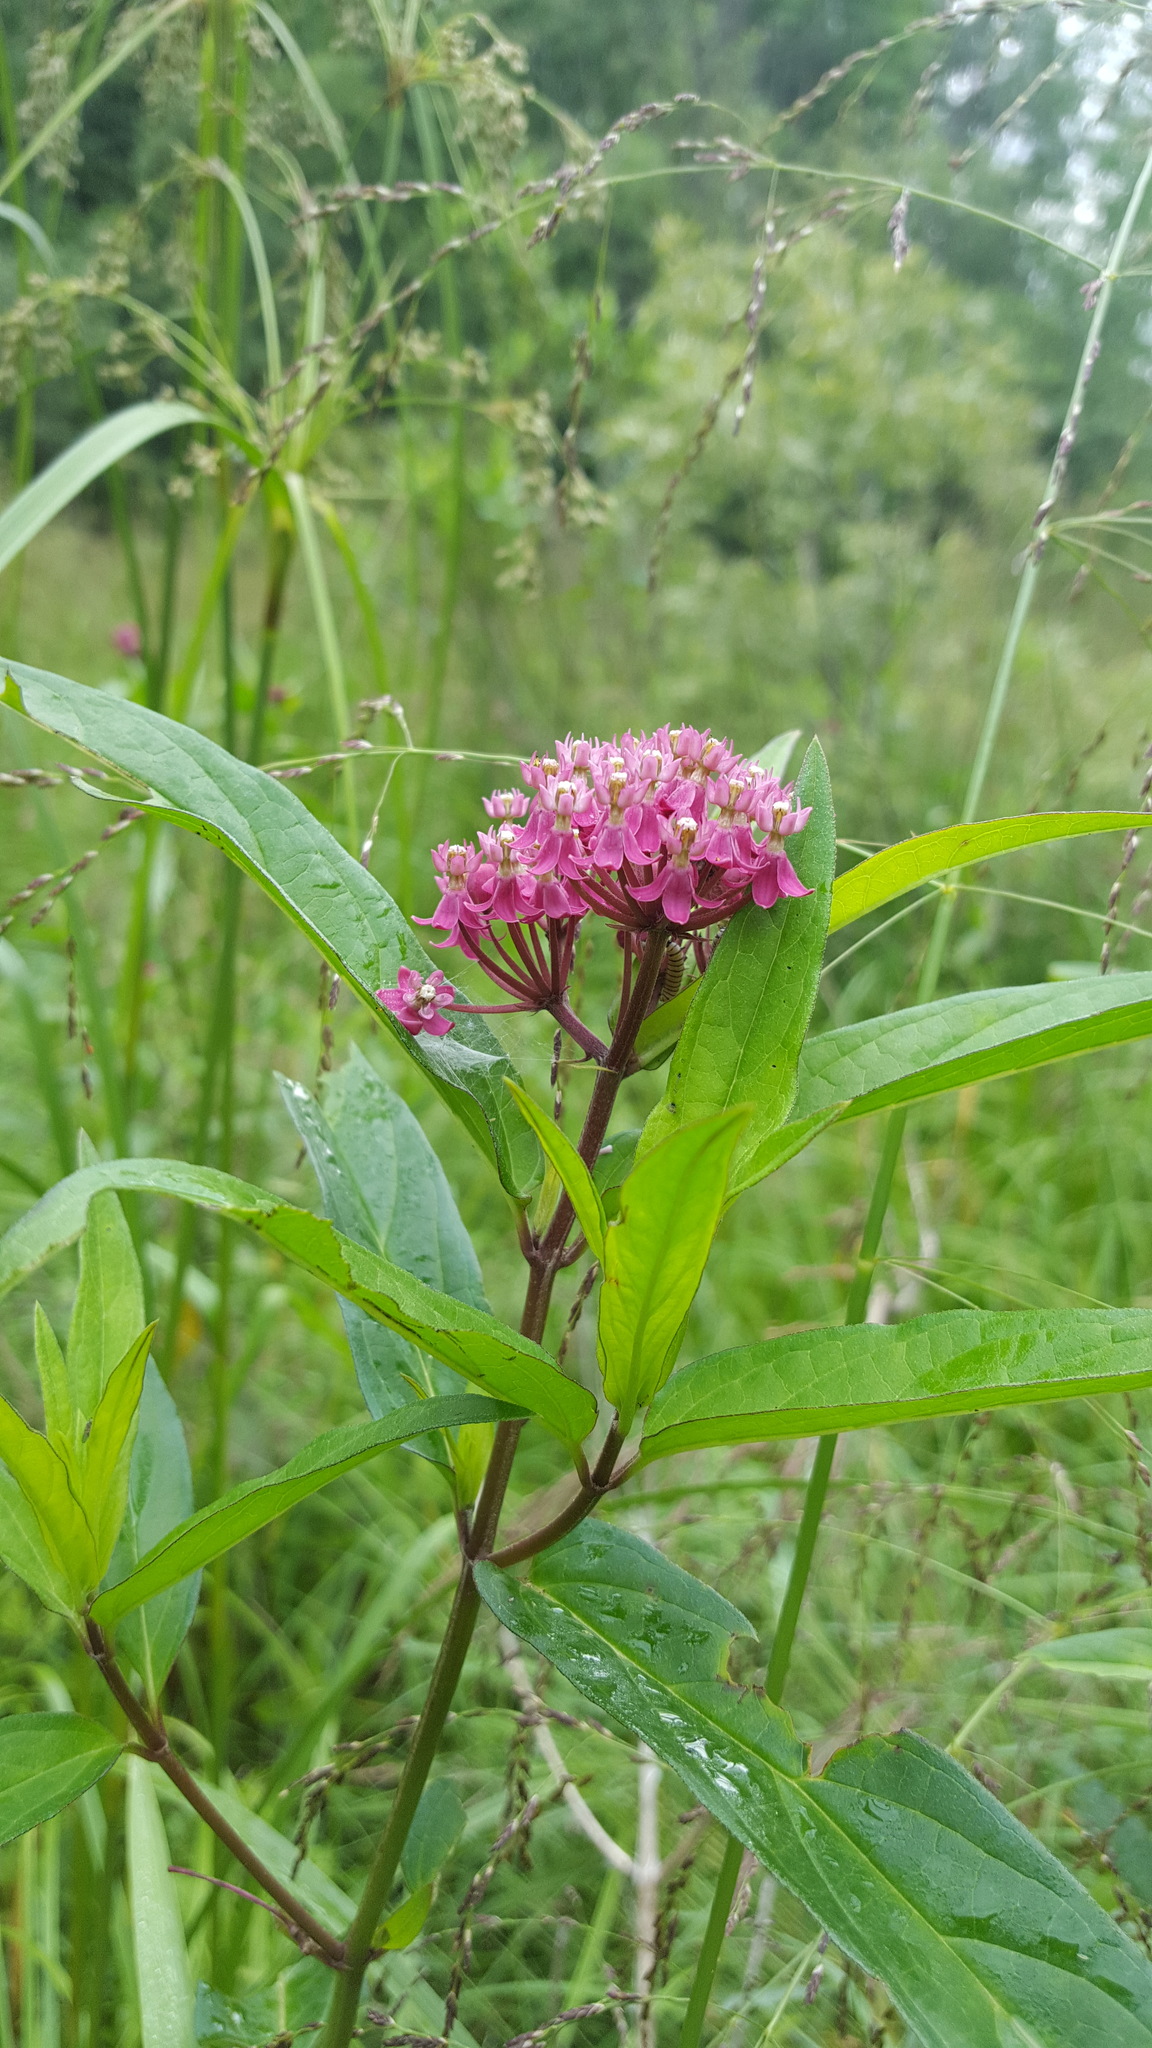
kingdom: Plantae
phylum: Tracheophyta
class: Magnoliopsida
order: Gentianales
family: Apocynaceae
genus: Asclepias
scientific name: Asclepias incarnata
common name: Swamp milkweed
